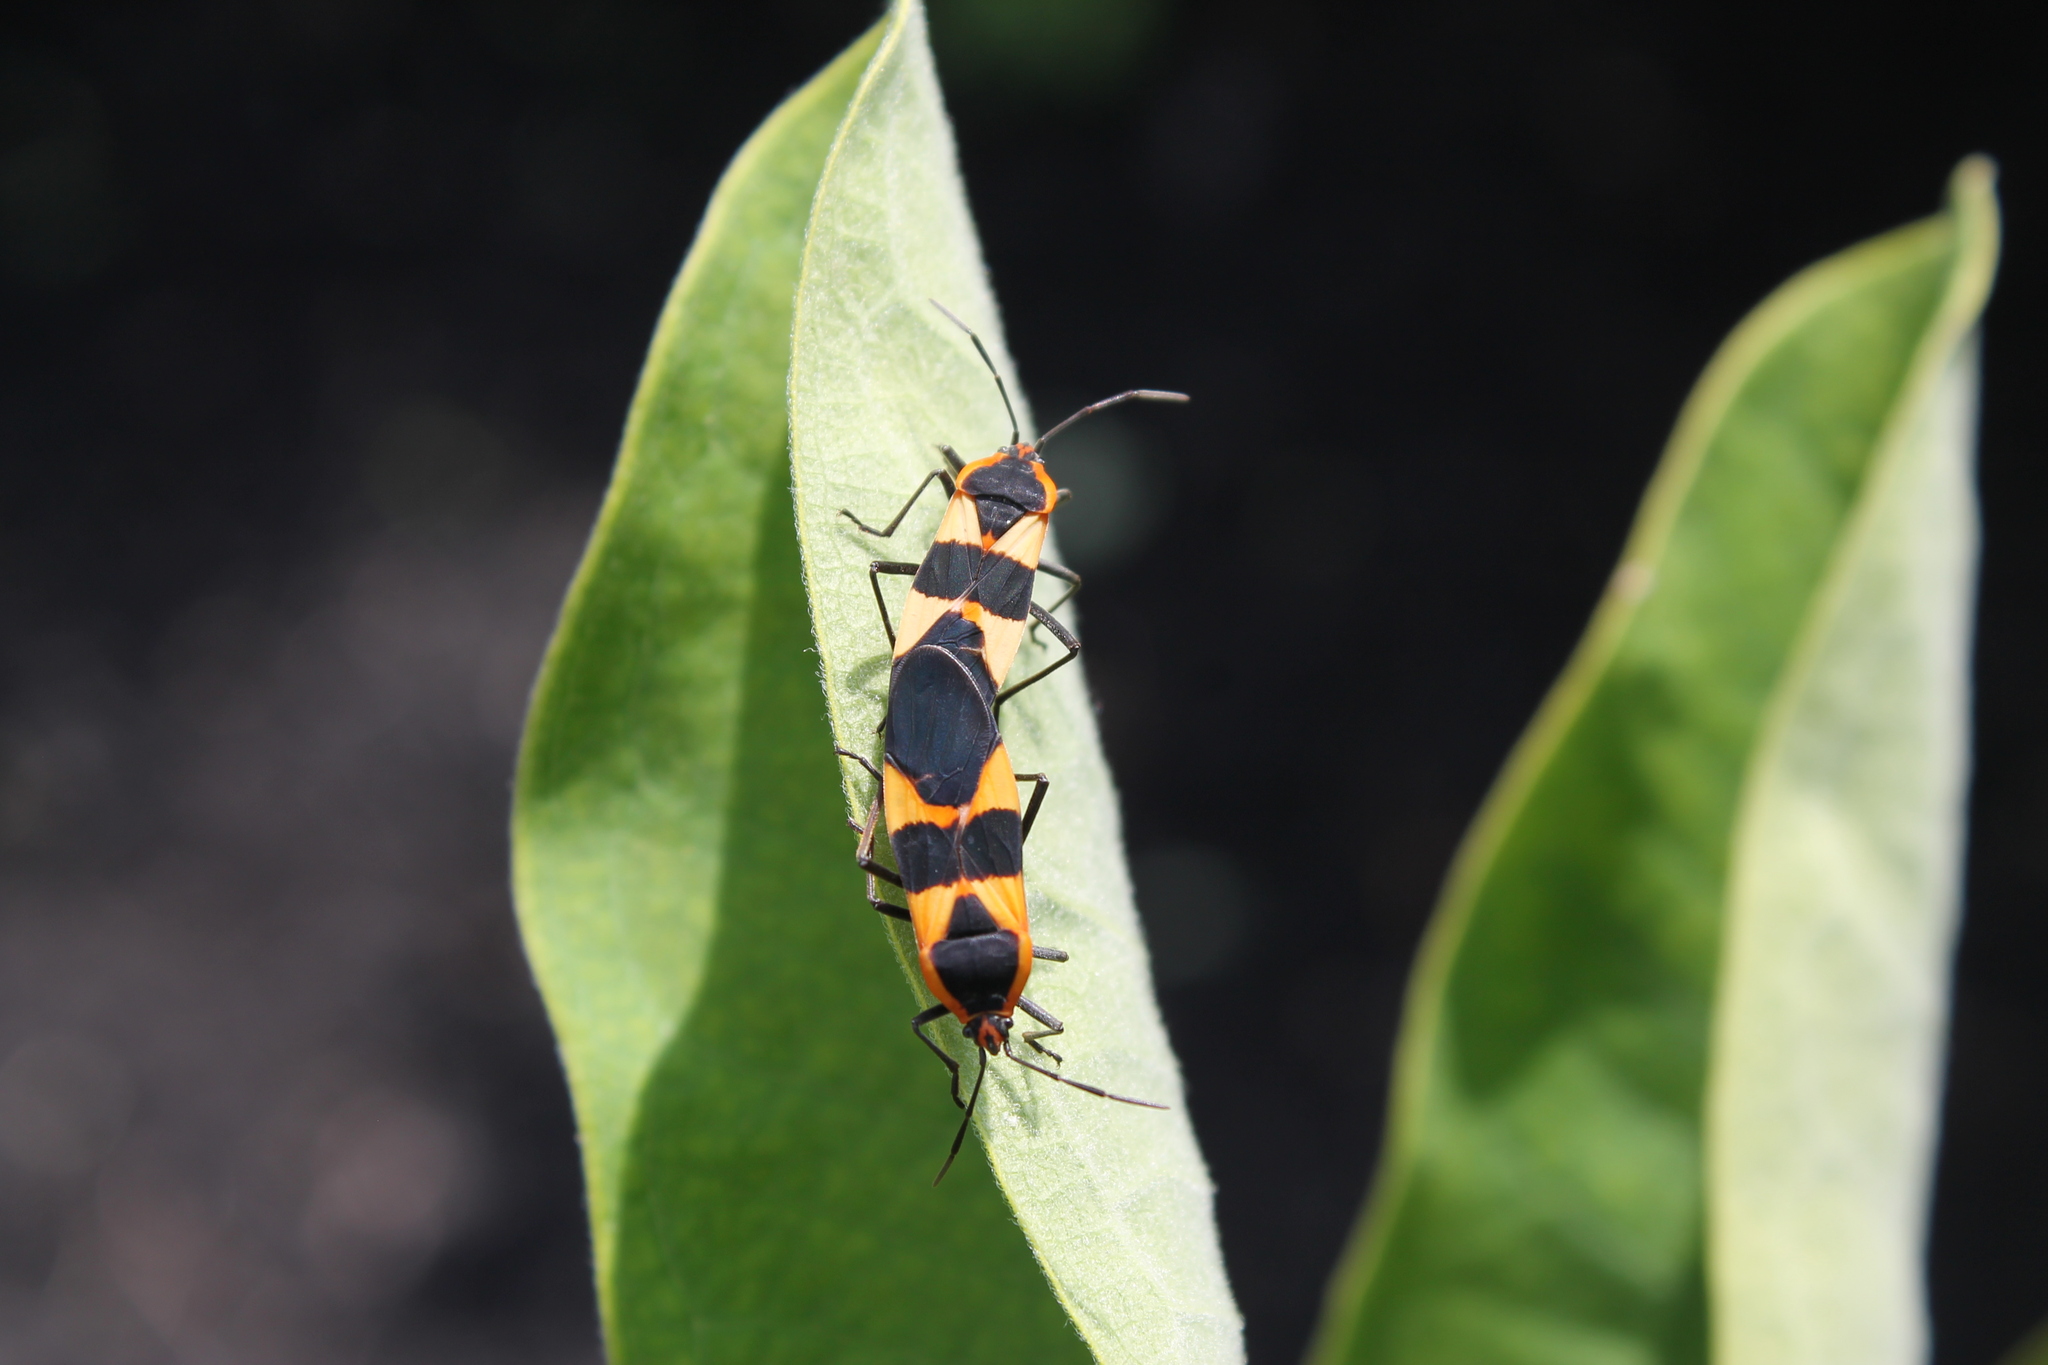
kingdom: Animalia
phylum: Arthropoda
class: Insecta
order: Hemiptera
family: Lygaeidae
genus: Oncopeltus
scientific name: Oncopeltus fasciatus
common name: Large milkweed bug
